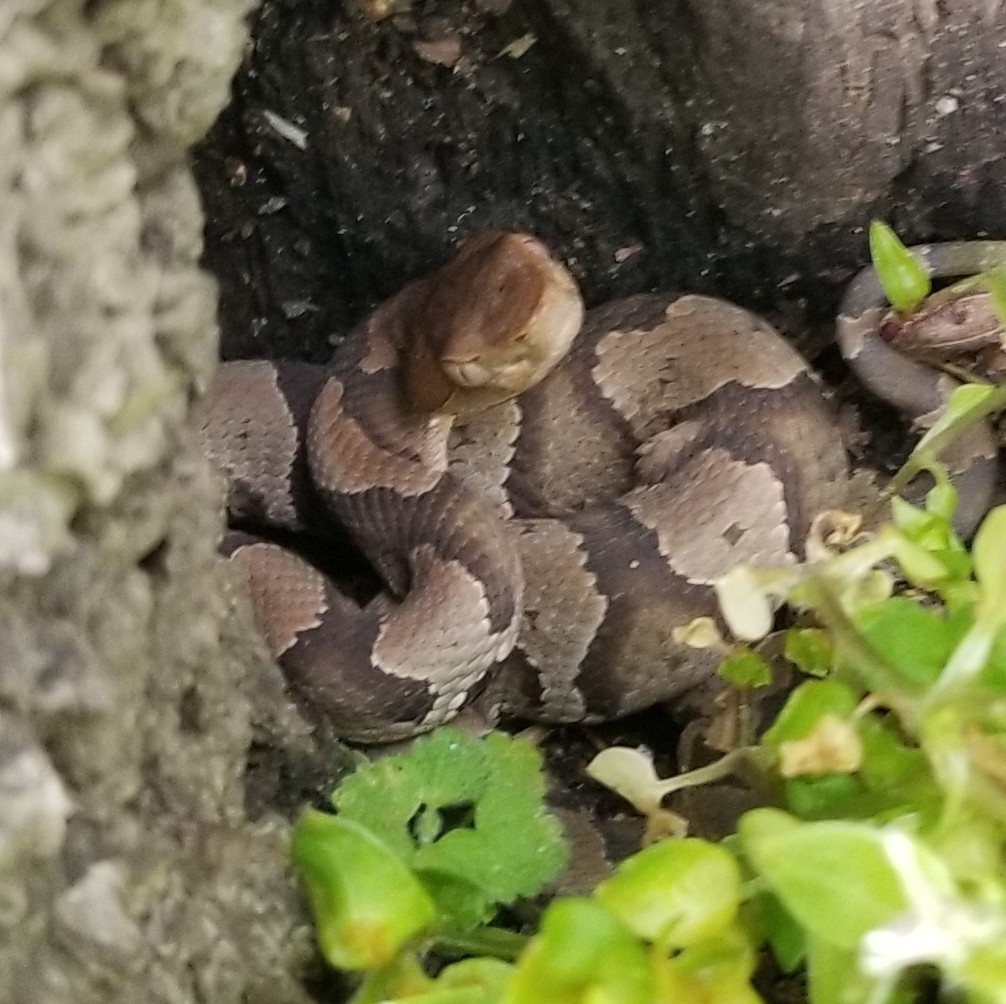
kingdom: Animalia
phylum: Chordata
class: Squamata
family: Viperidae
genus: Agkistrodon
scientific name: Agkistrodon contortrix
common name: Northern copperhead
